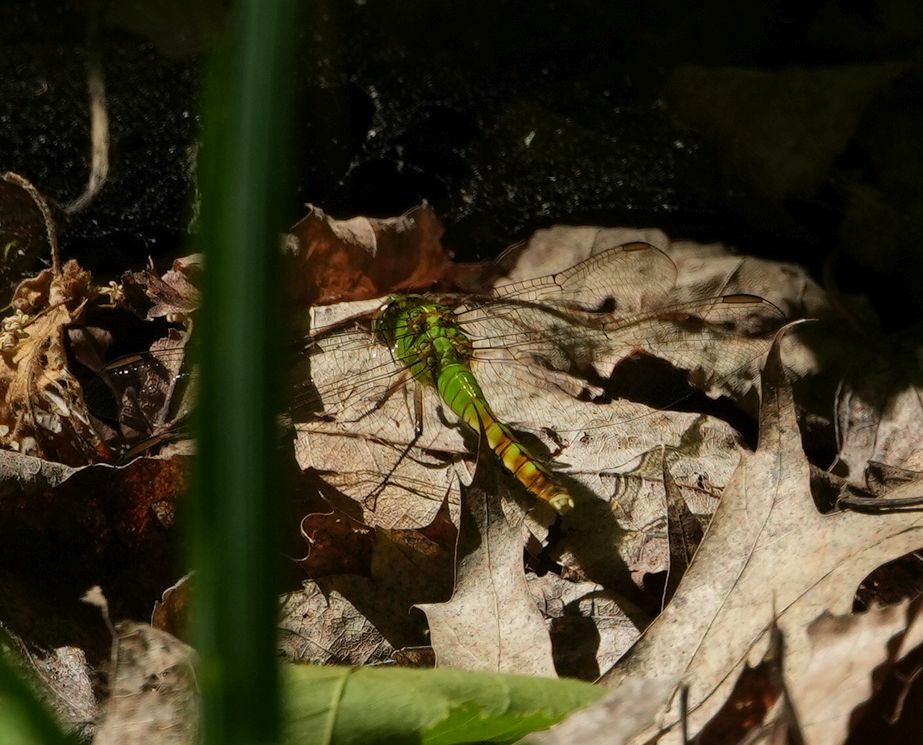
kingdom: Animalia
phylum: Arthropoda
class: Insecta
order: Odonata
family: Libellulidae
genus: Erythemis
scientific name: Erythemis simplicicollis
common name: Eastern pondhawk
